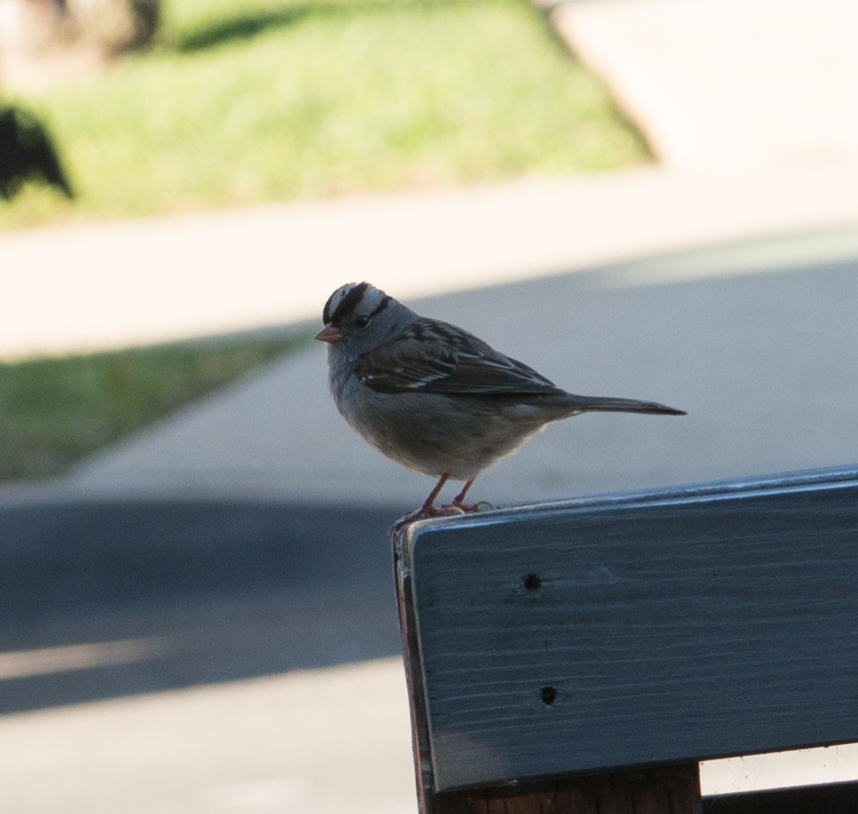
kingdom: Animalia
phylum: Chordata
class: Aves
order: Passeriformes
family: Passerellidae
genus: Zonotrichia
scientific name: Zonotrichia leucophrys
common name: White-crowned sparrow
